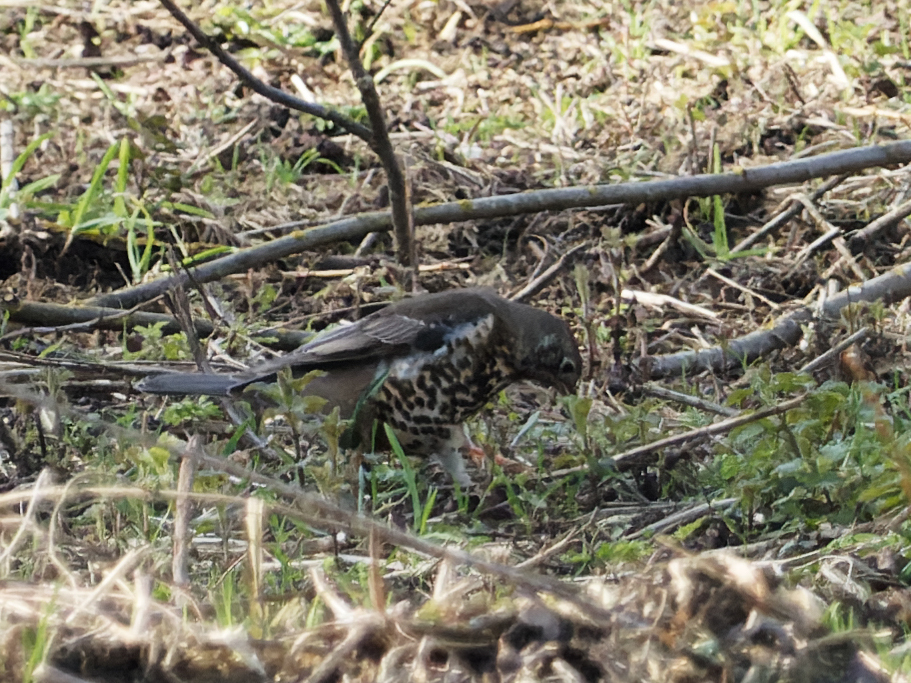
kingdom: Animalia
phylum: Chordata
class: Aves
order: Passeriformes
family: Turdidae
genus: Turdus
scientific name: Turdus viscivorus
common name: Mistle thrush
